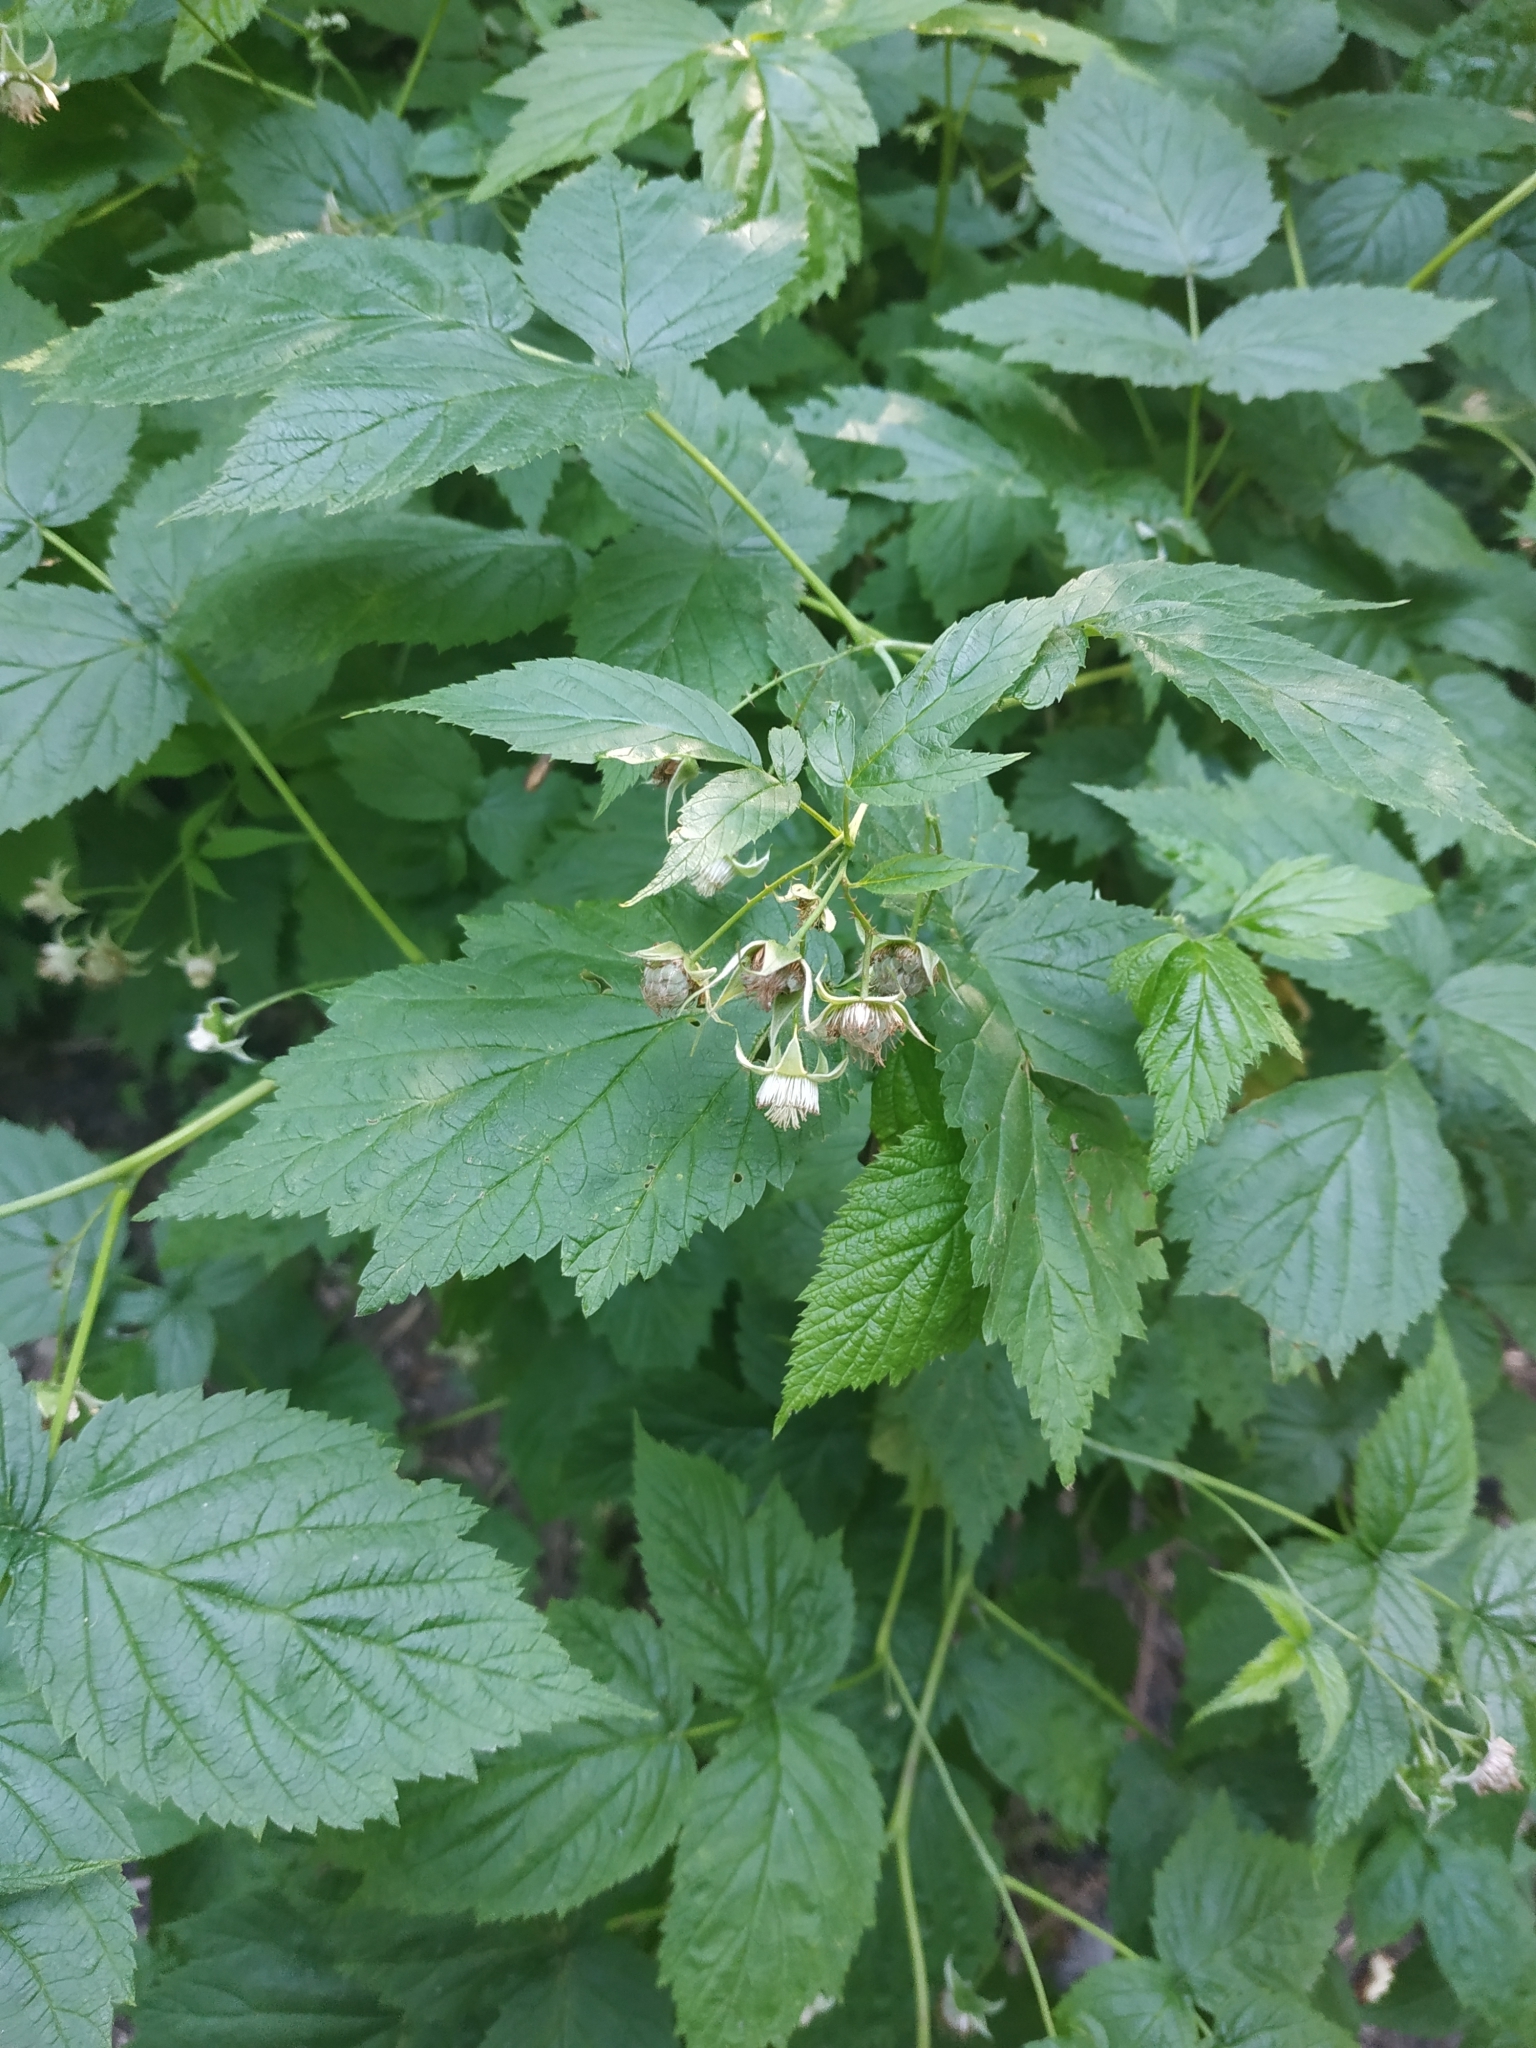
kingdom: Plantae
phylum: Tracheophyta
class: Magnoliopsida
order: Rosales
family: Rosaceae
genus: Rubus
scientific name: Rubus idaeus
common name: Raspberry
